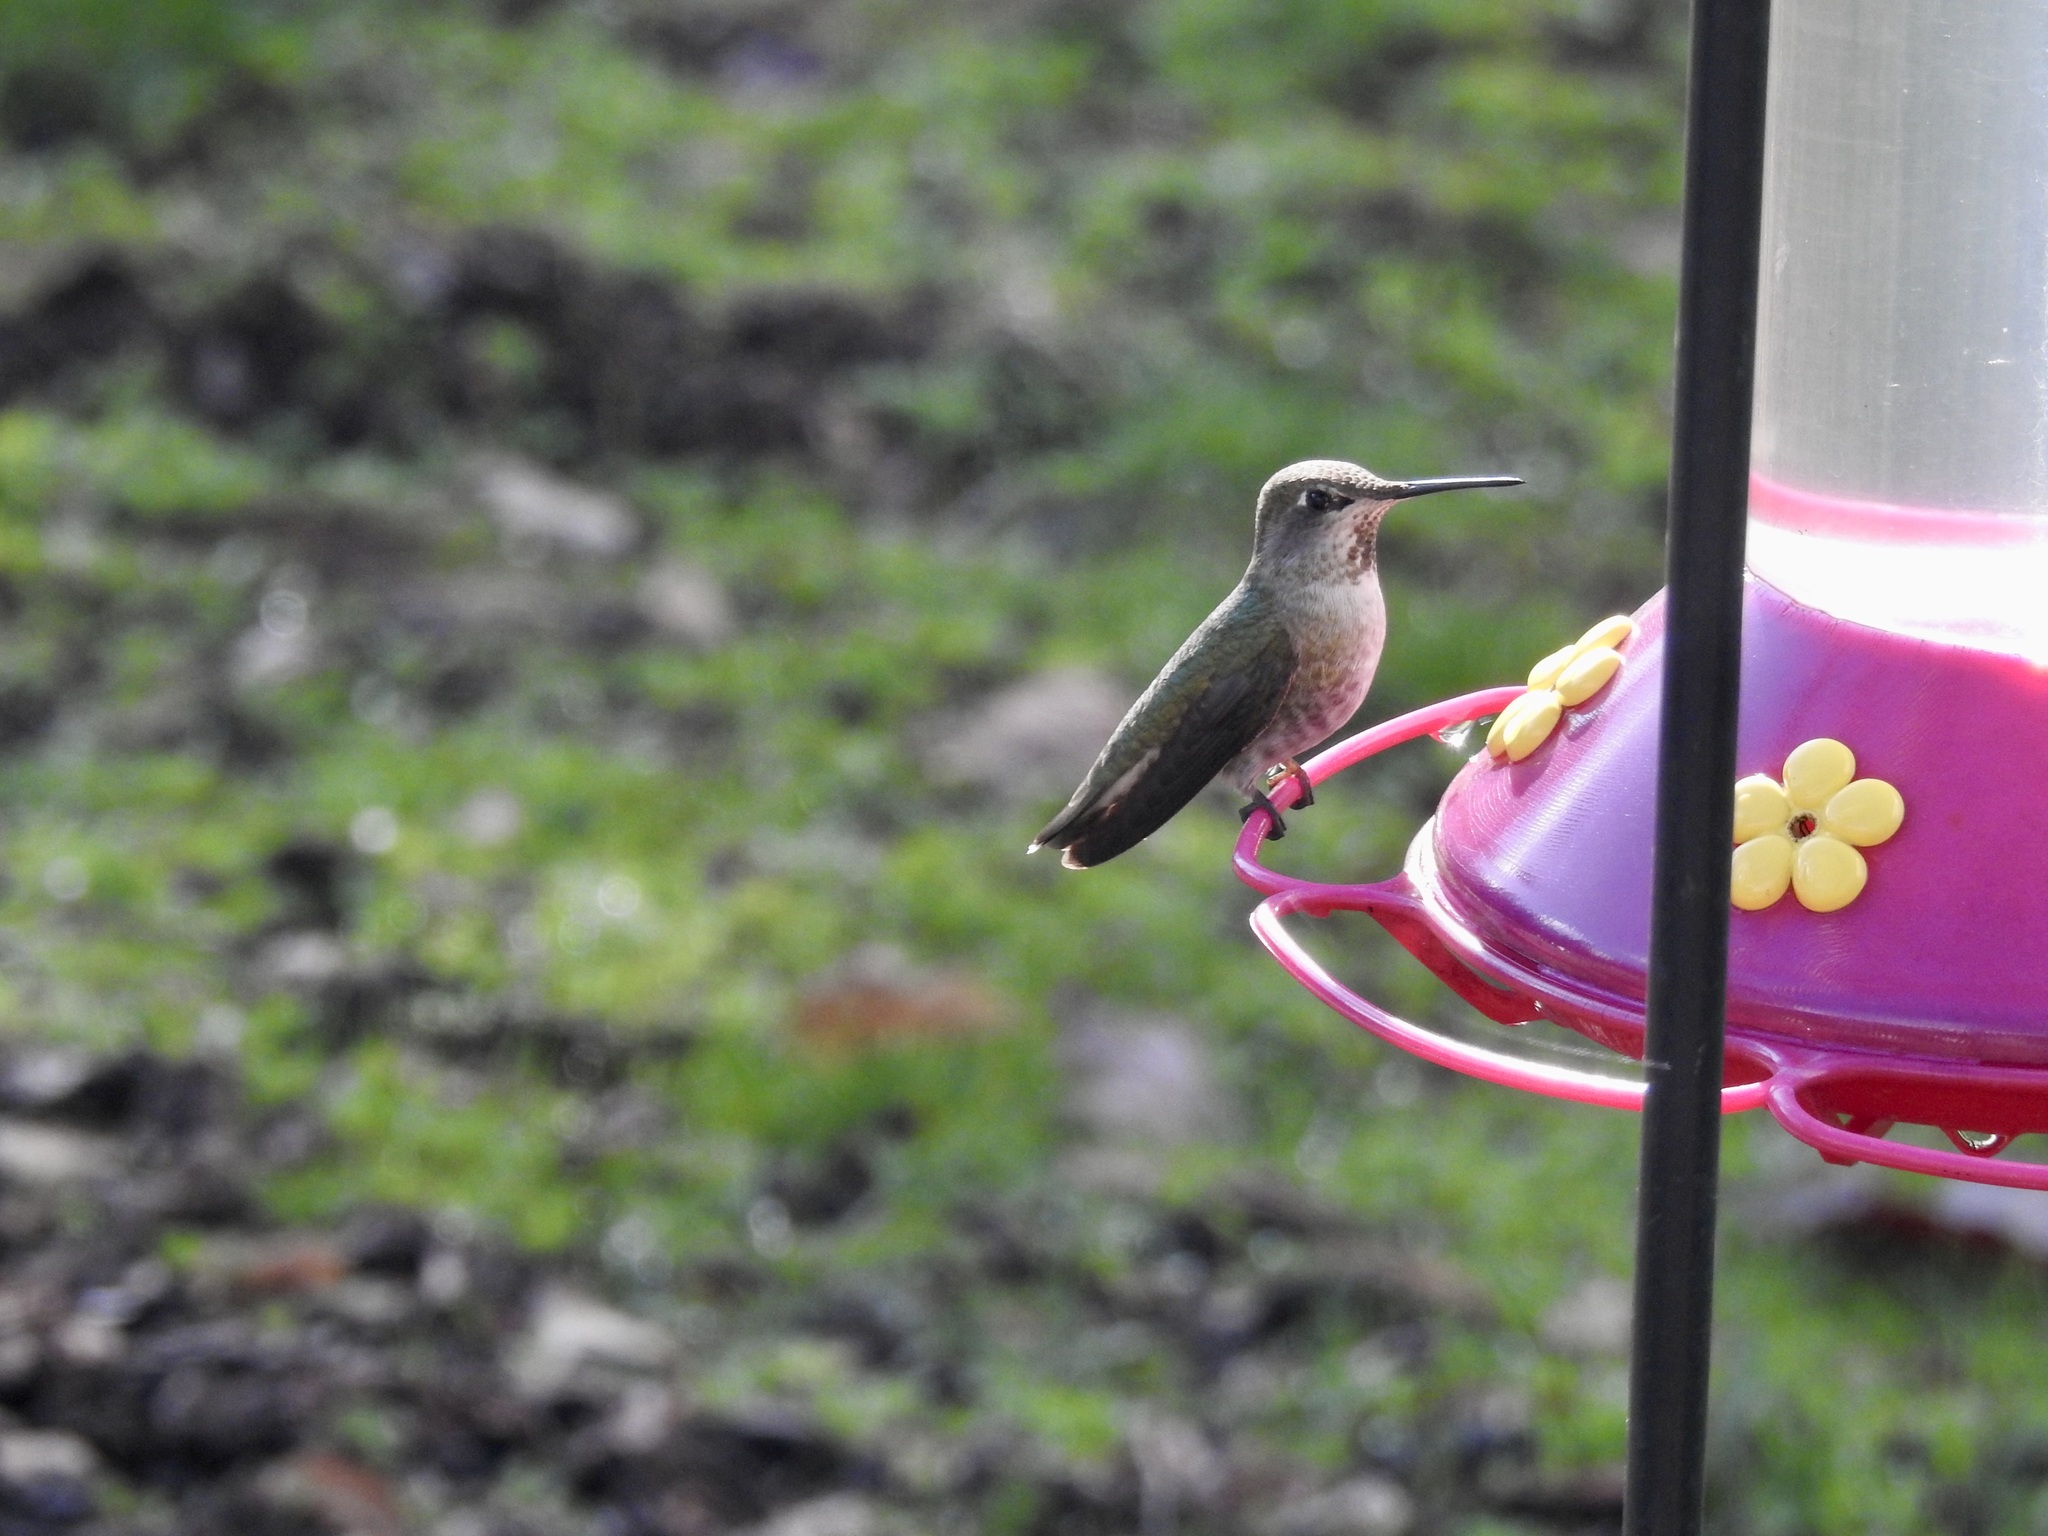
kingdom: Animalia
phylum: Chordata
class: Aves
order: Apodiformes
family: Trochilidae
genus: Calypte
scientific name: Calypte anna
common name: Anna's hummingbird
